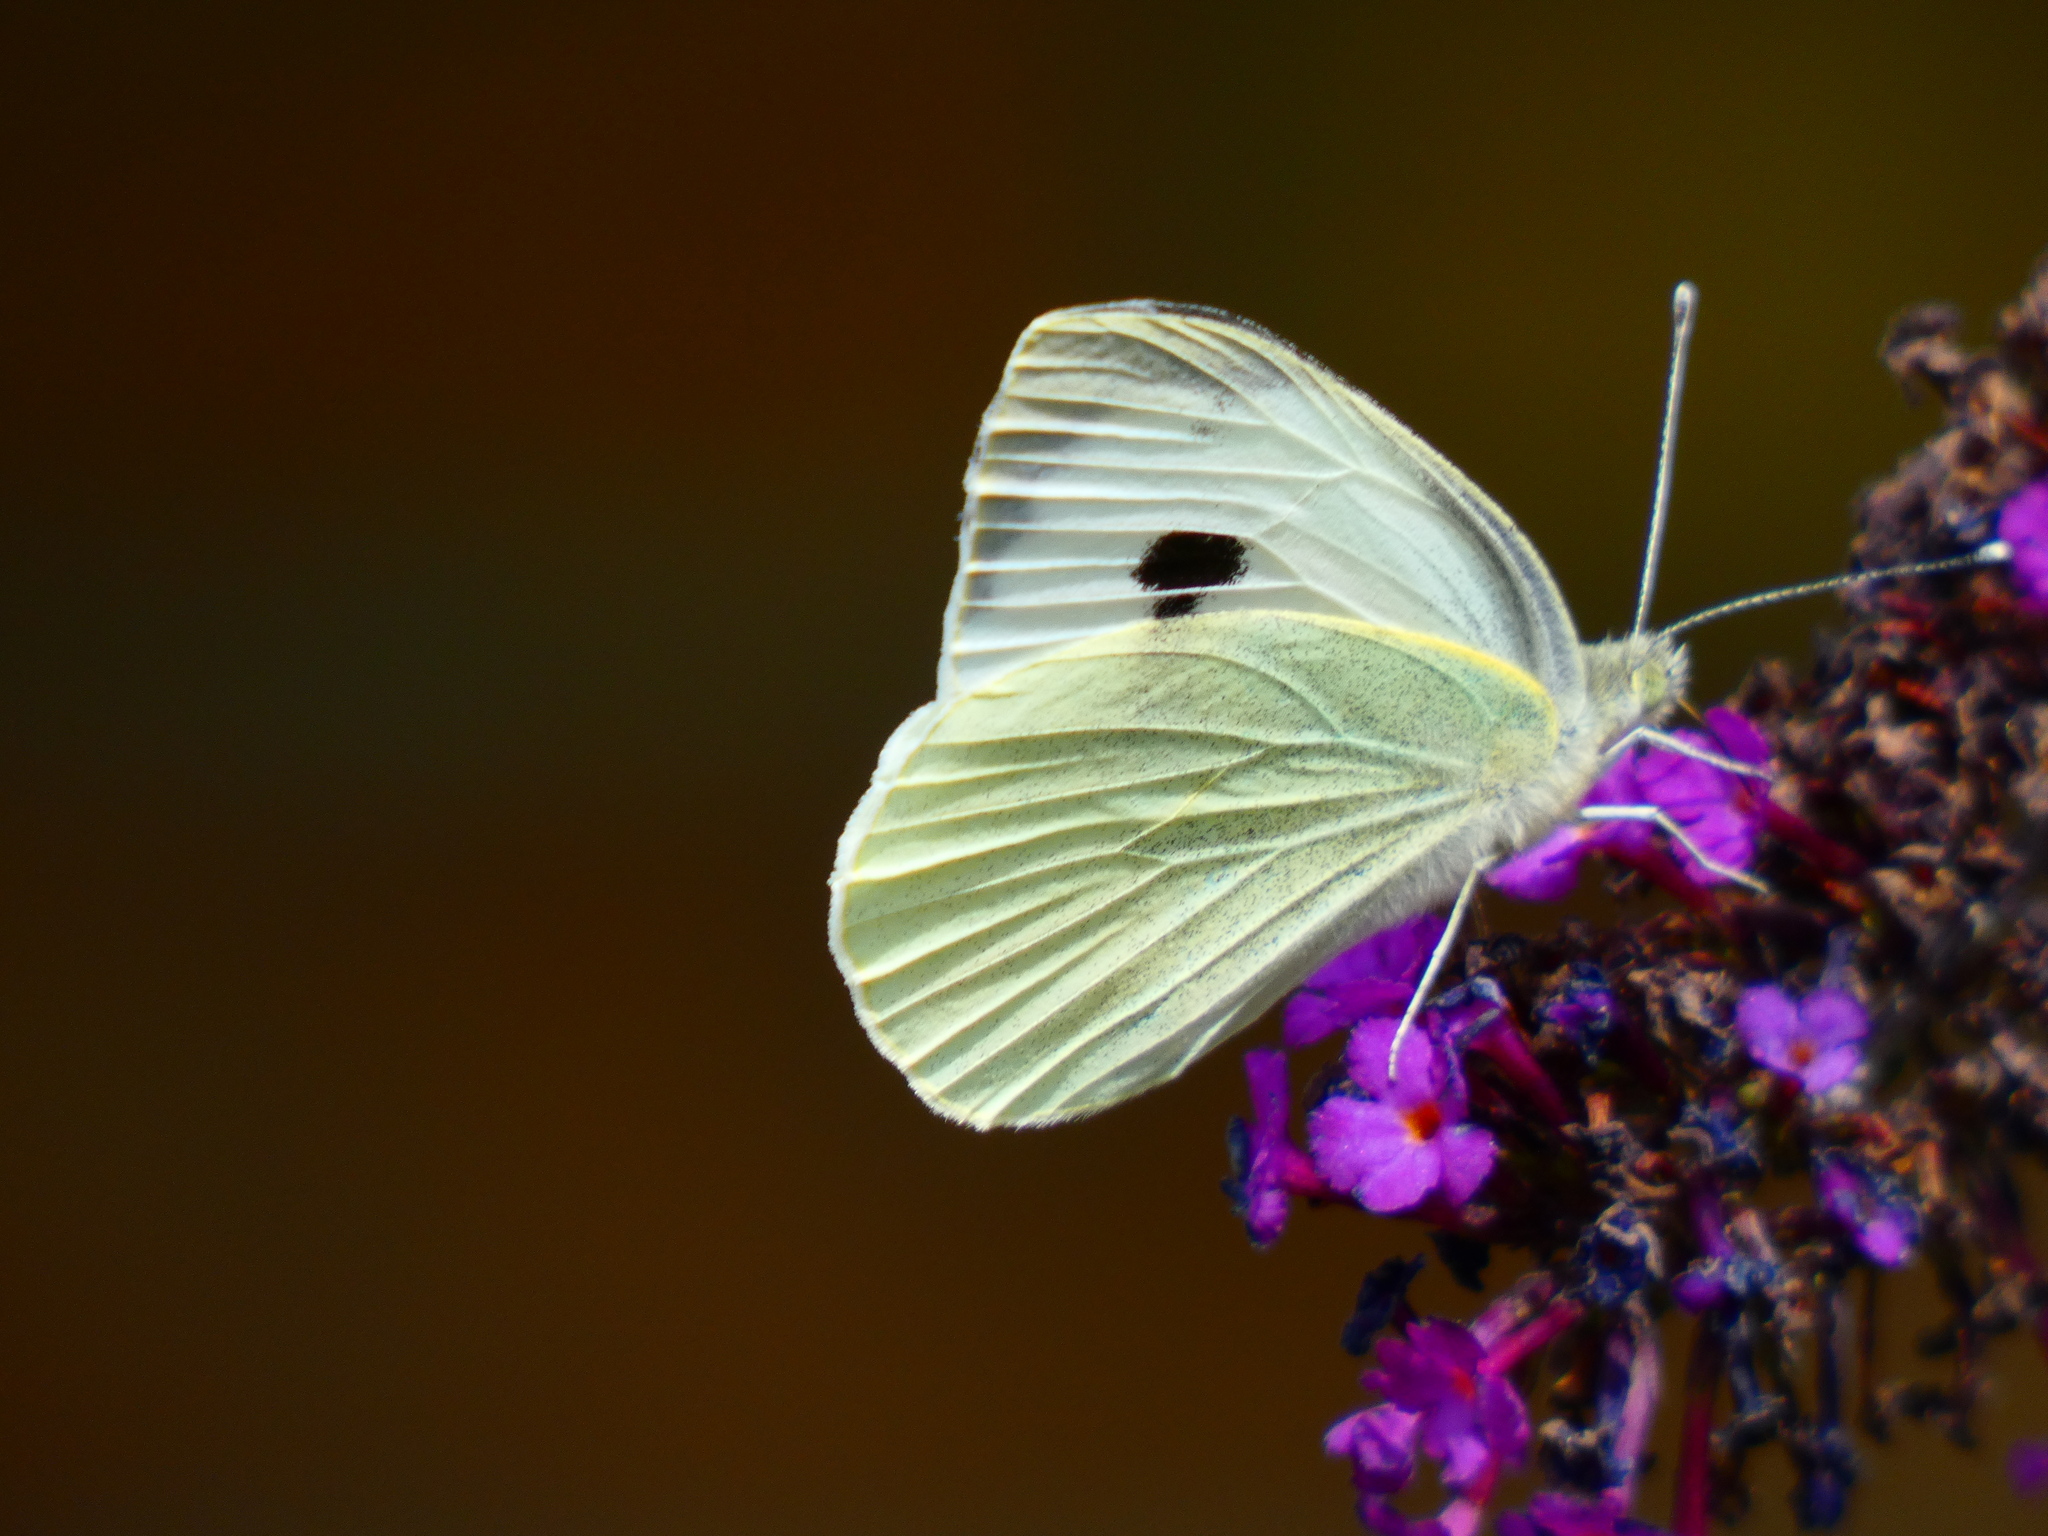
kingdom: Animalia
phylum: Arthropoda
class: Insecta
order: Lepidoptera
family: Pieridae
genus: Pieris
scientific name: Pieris brassicae
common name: Large white
